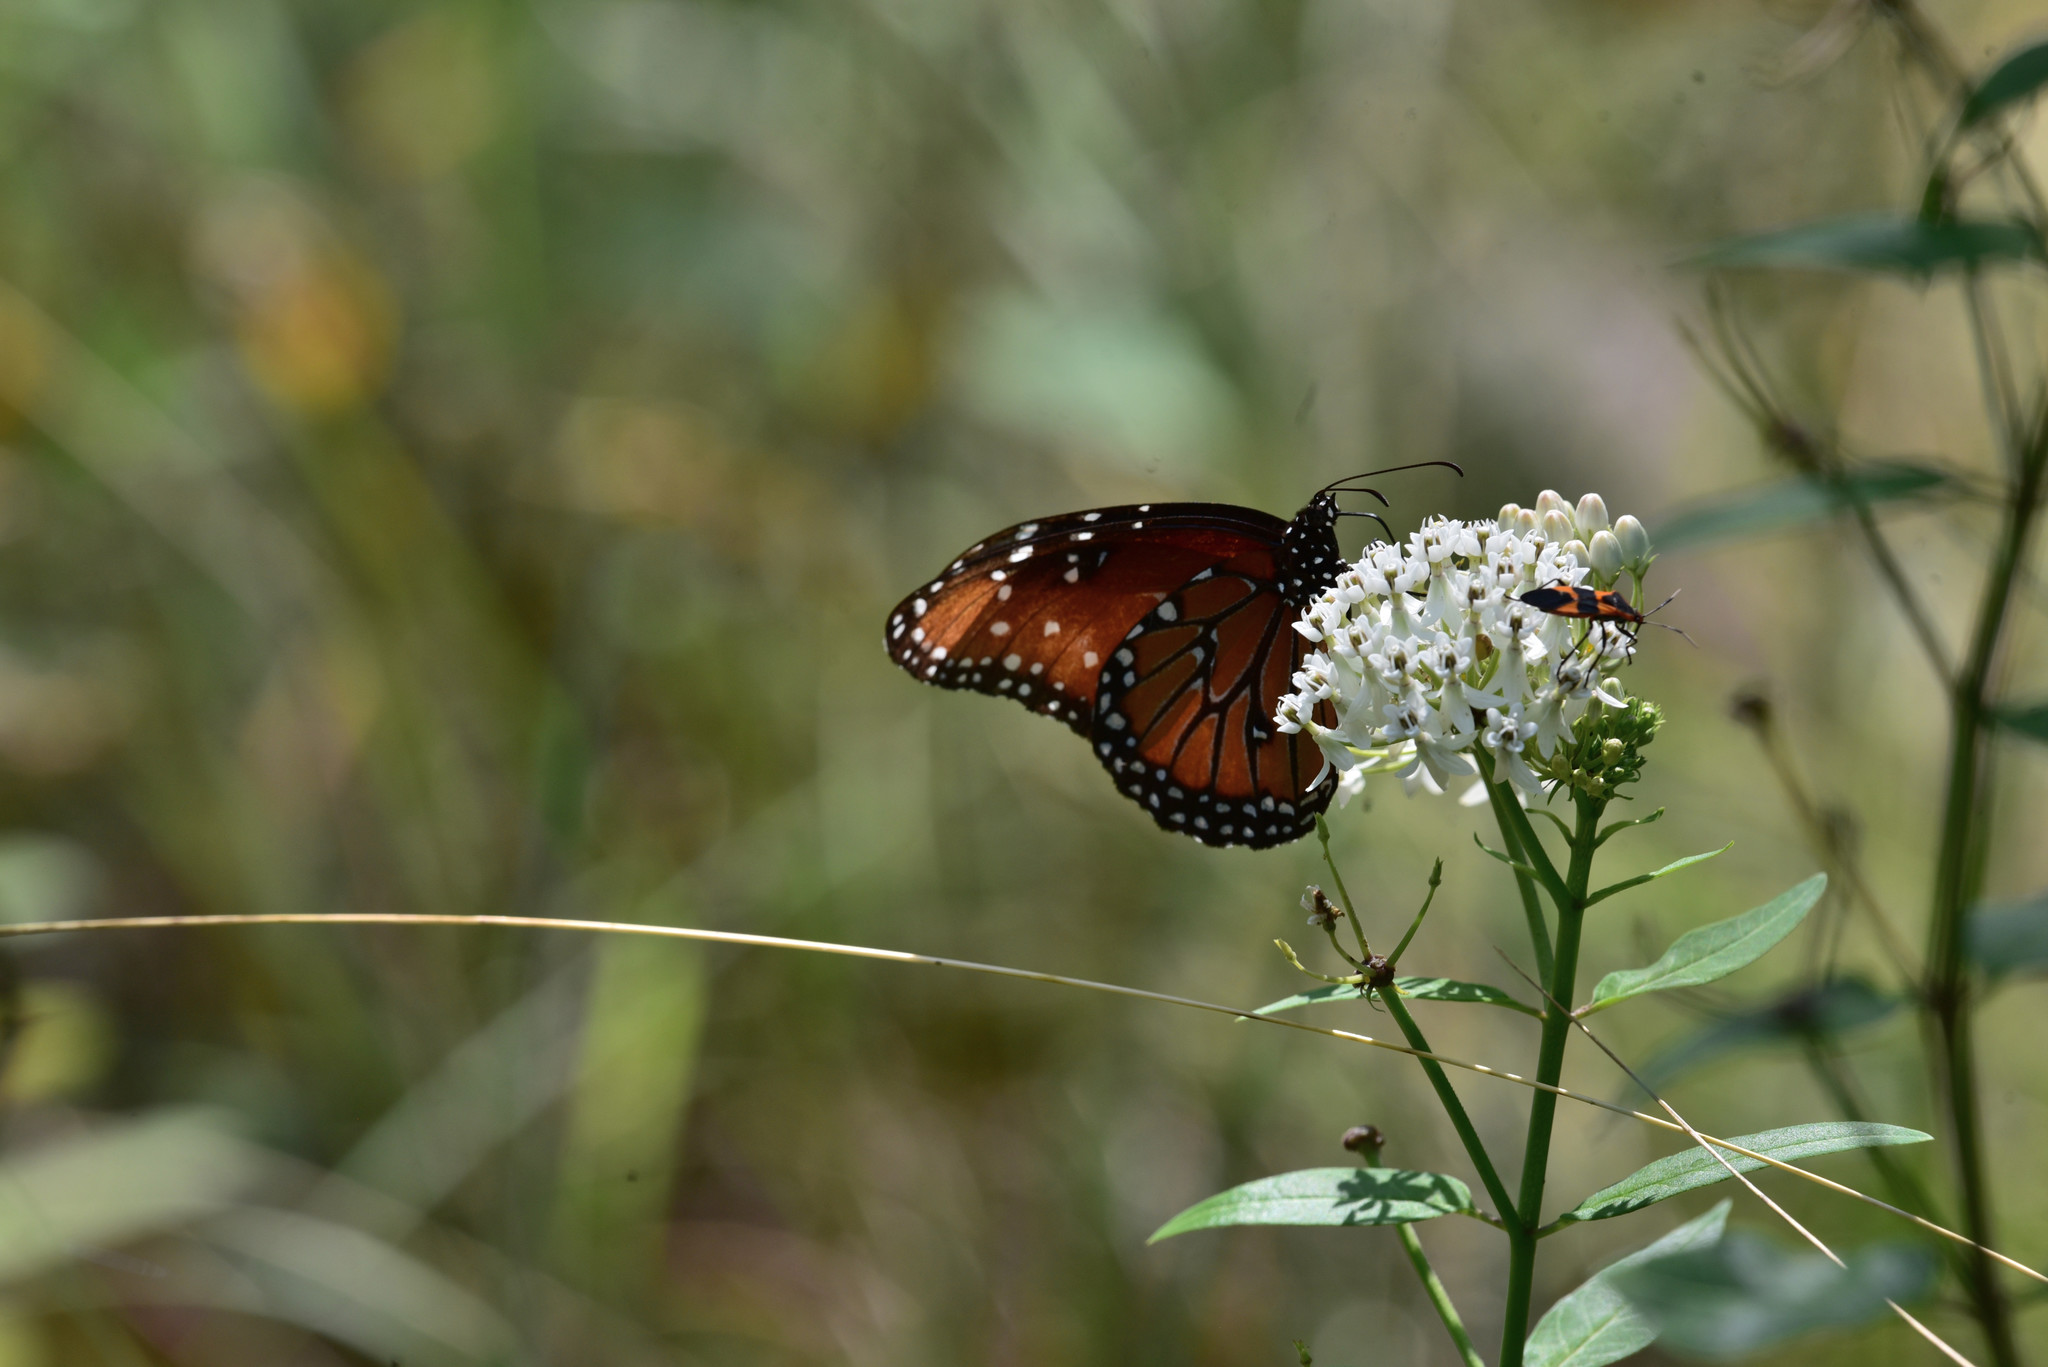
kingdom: Animalia
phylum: Arthropoda
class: Insecta
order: Lepidoptera
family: Nymphalidae
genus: Danaus
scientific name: Danaus gilippus
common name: Queen
